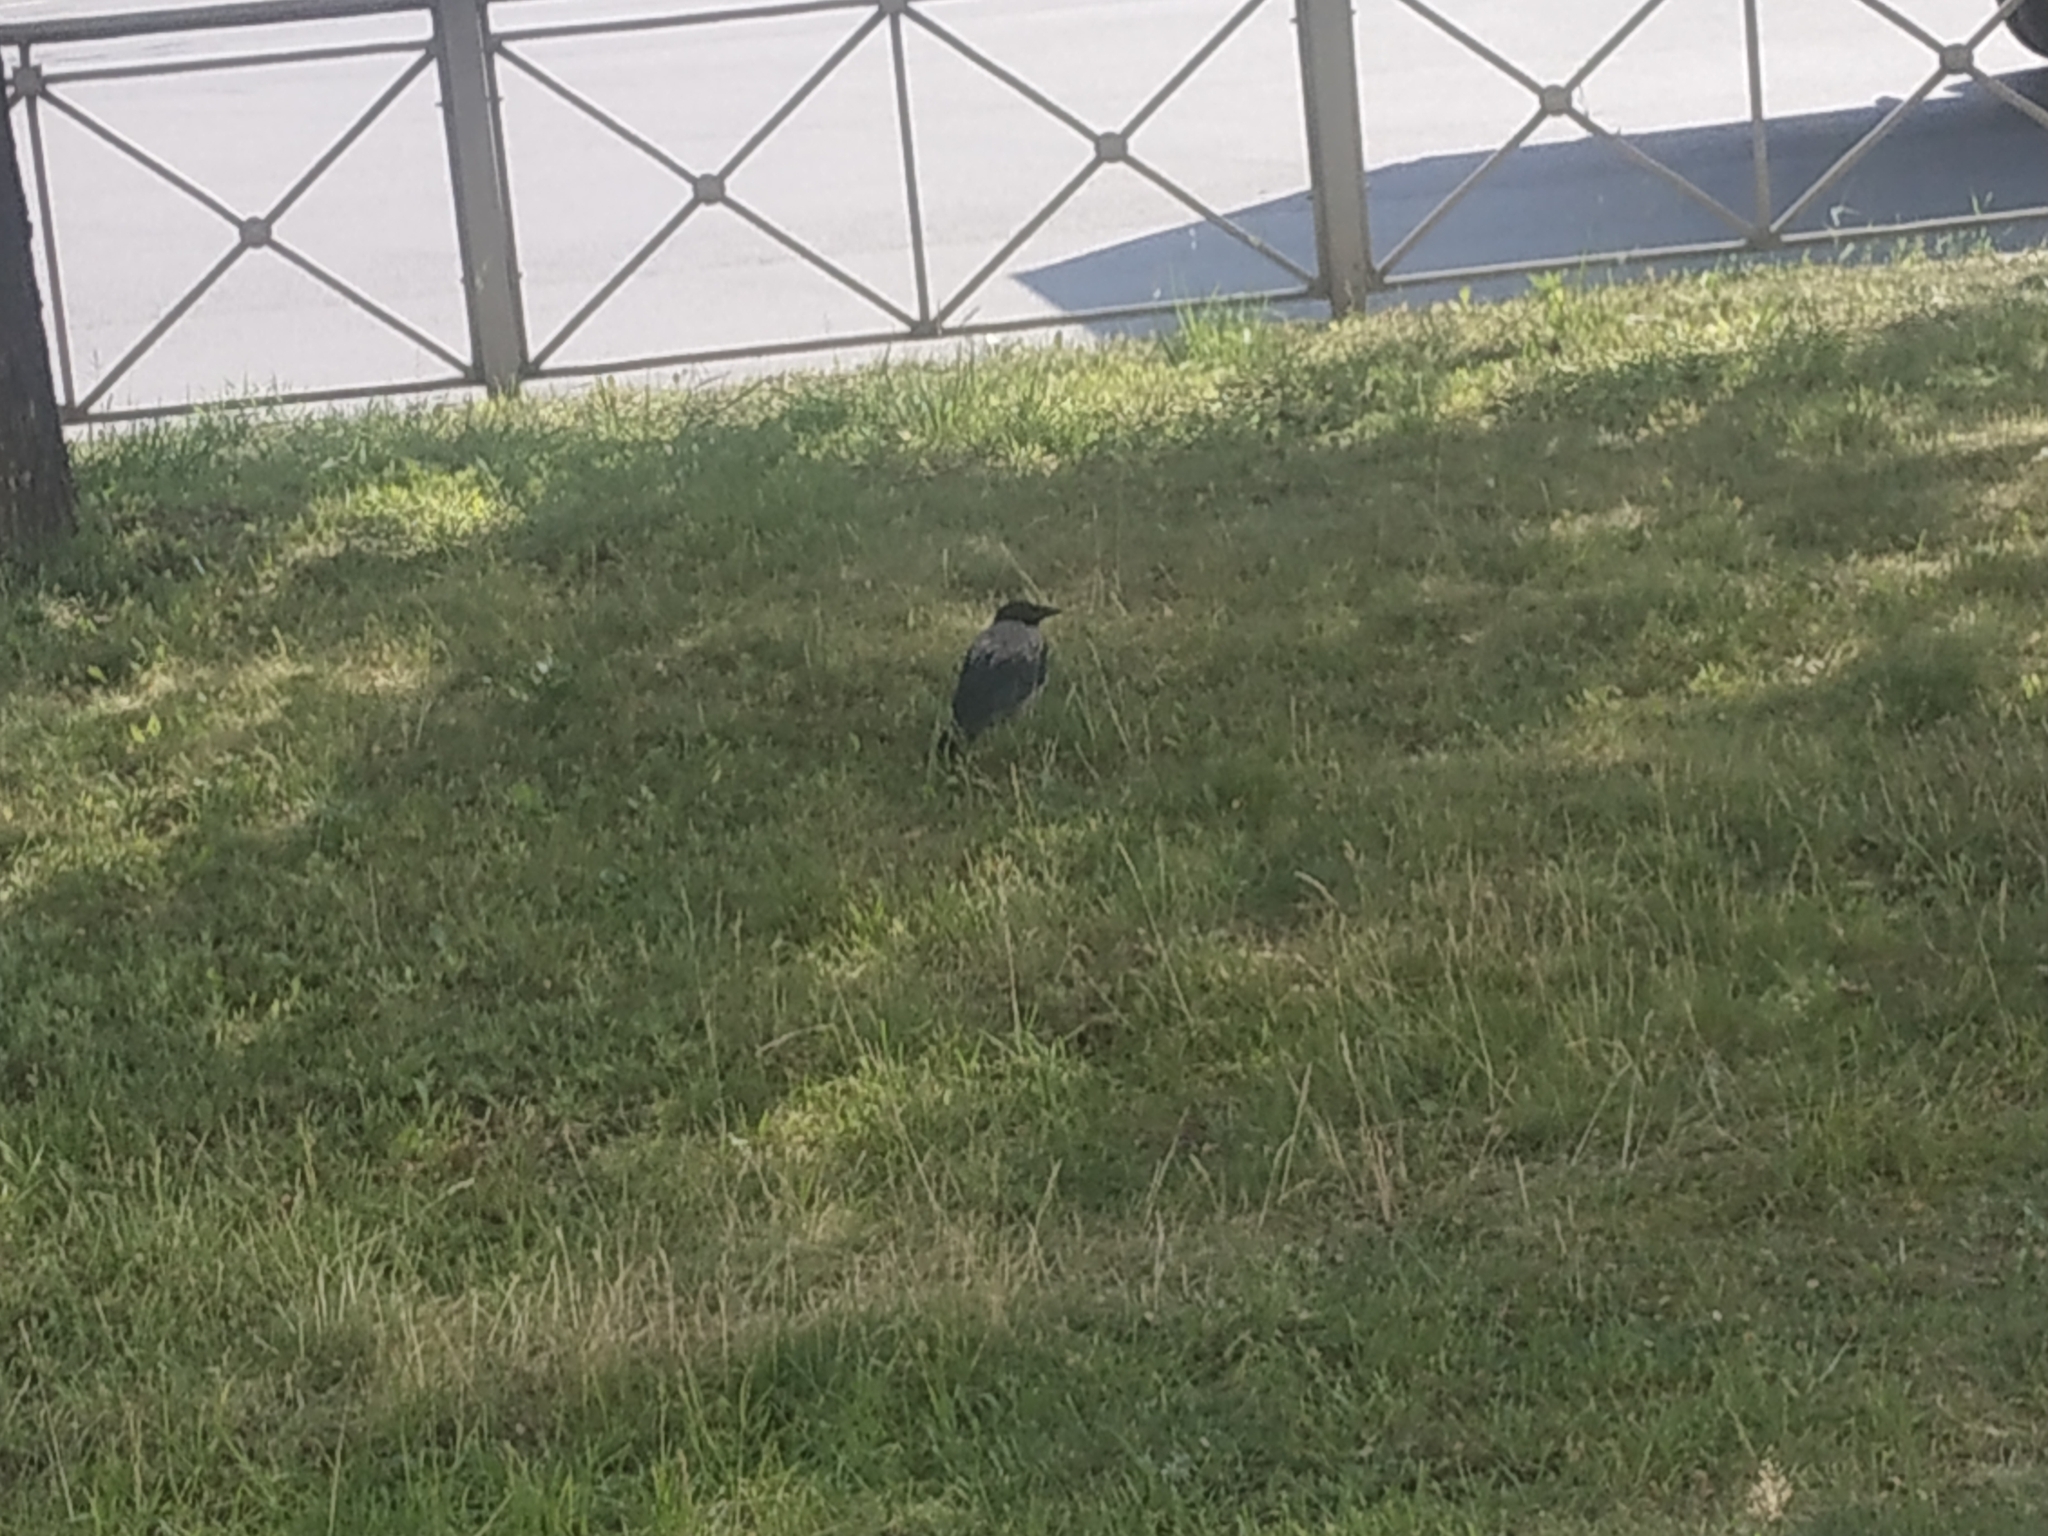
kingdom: Animalia
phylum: Chordata
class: Aves
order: Passeriformes
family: Corvidae
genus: Corvus
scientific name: Corvus cornix
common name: Hooded crow
